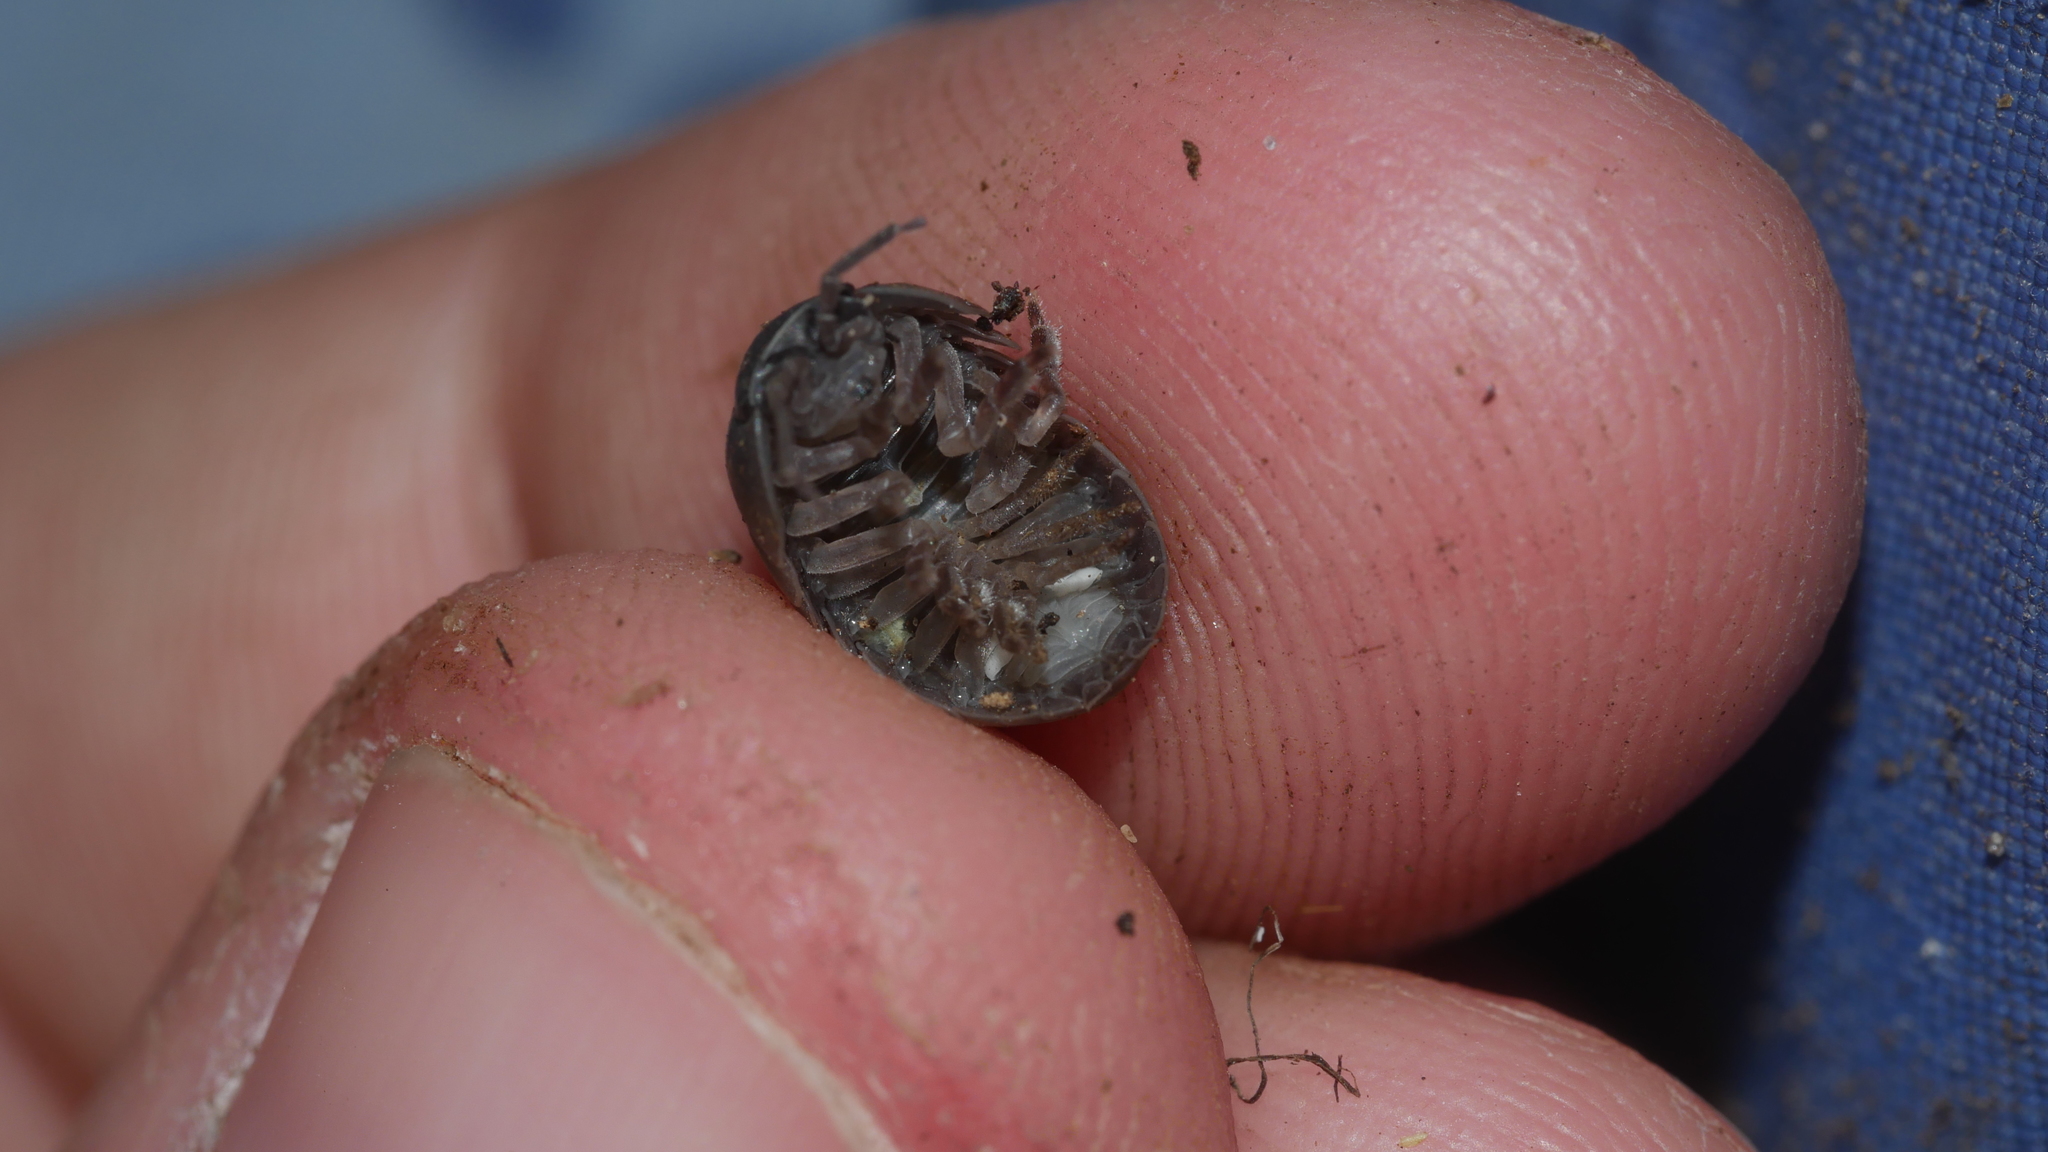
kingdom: Animalia
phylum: Arthropoda
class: Malacostraca
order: Isopoda
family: Armadillidiidae
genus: Armadillidium
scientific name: Armadillidium vulgare
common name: Common pill woodlouse
